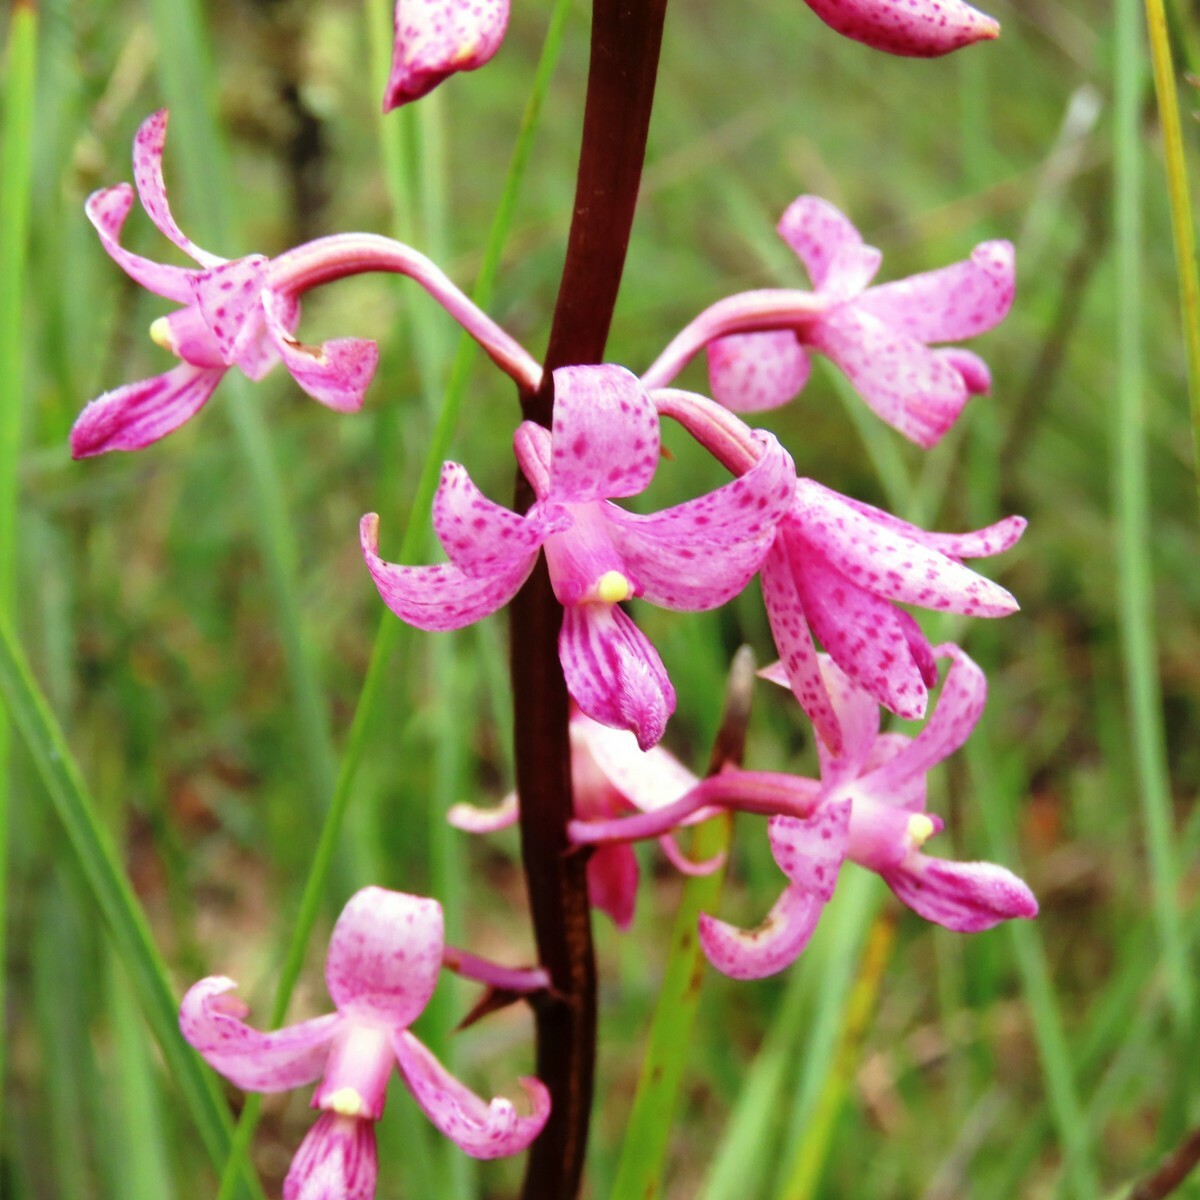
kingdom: Plantae
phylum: Tracheophyta
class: Liliopsida
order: Asparagales
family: Orchidaceae
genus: Dipodium
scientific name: Dipodium roseum
